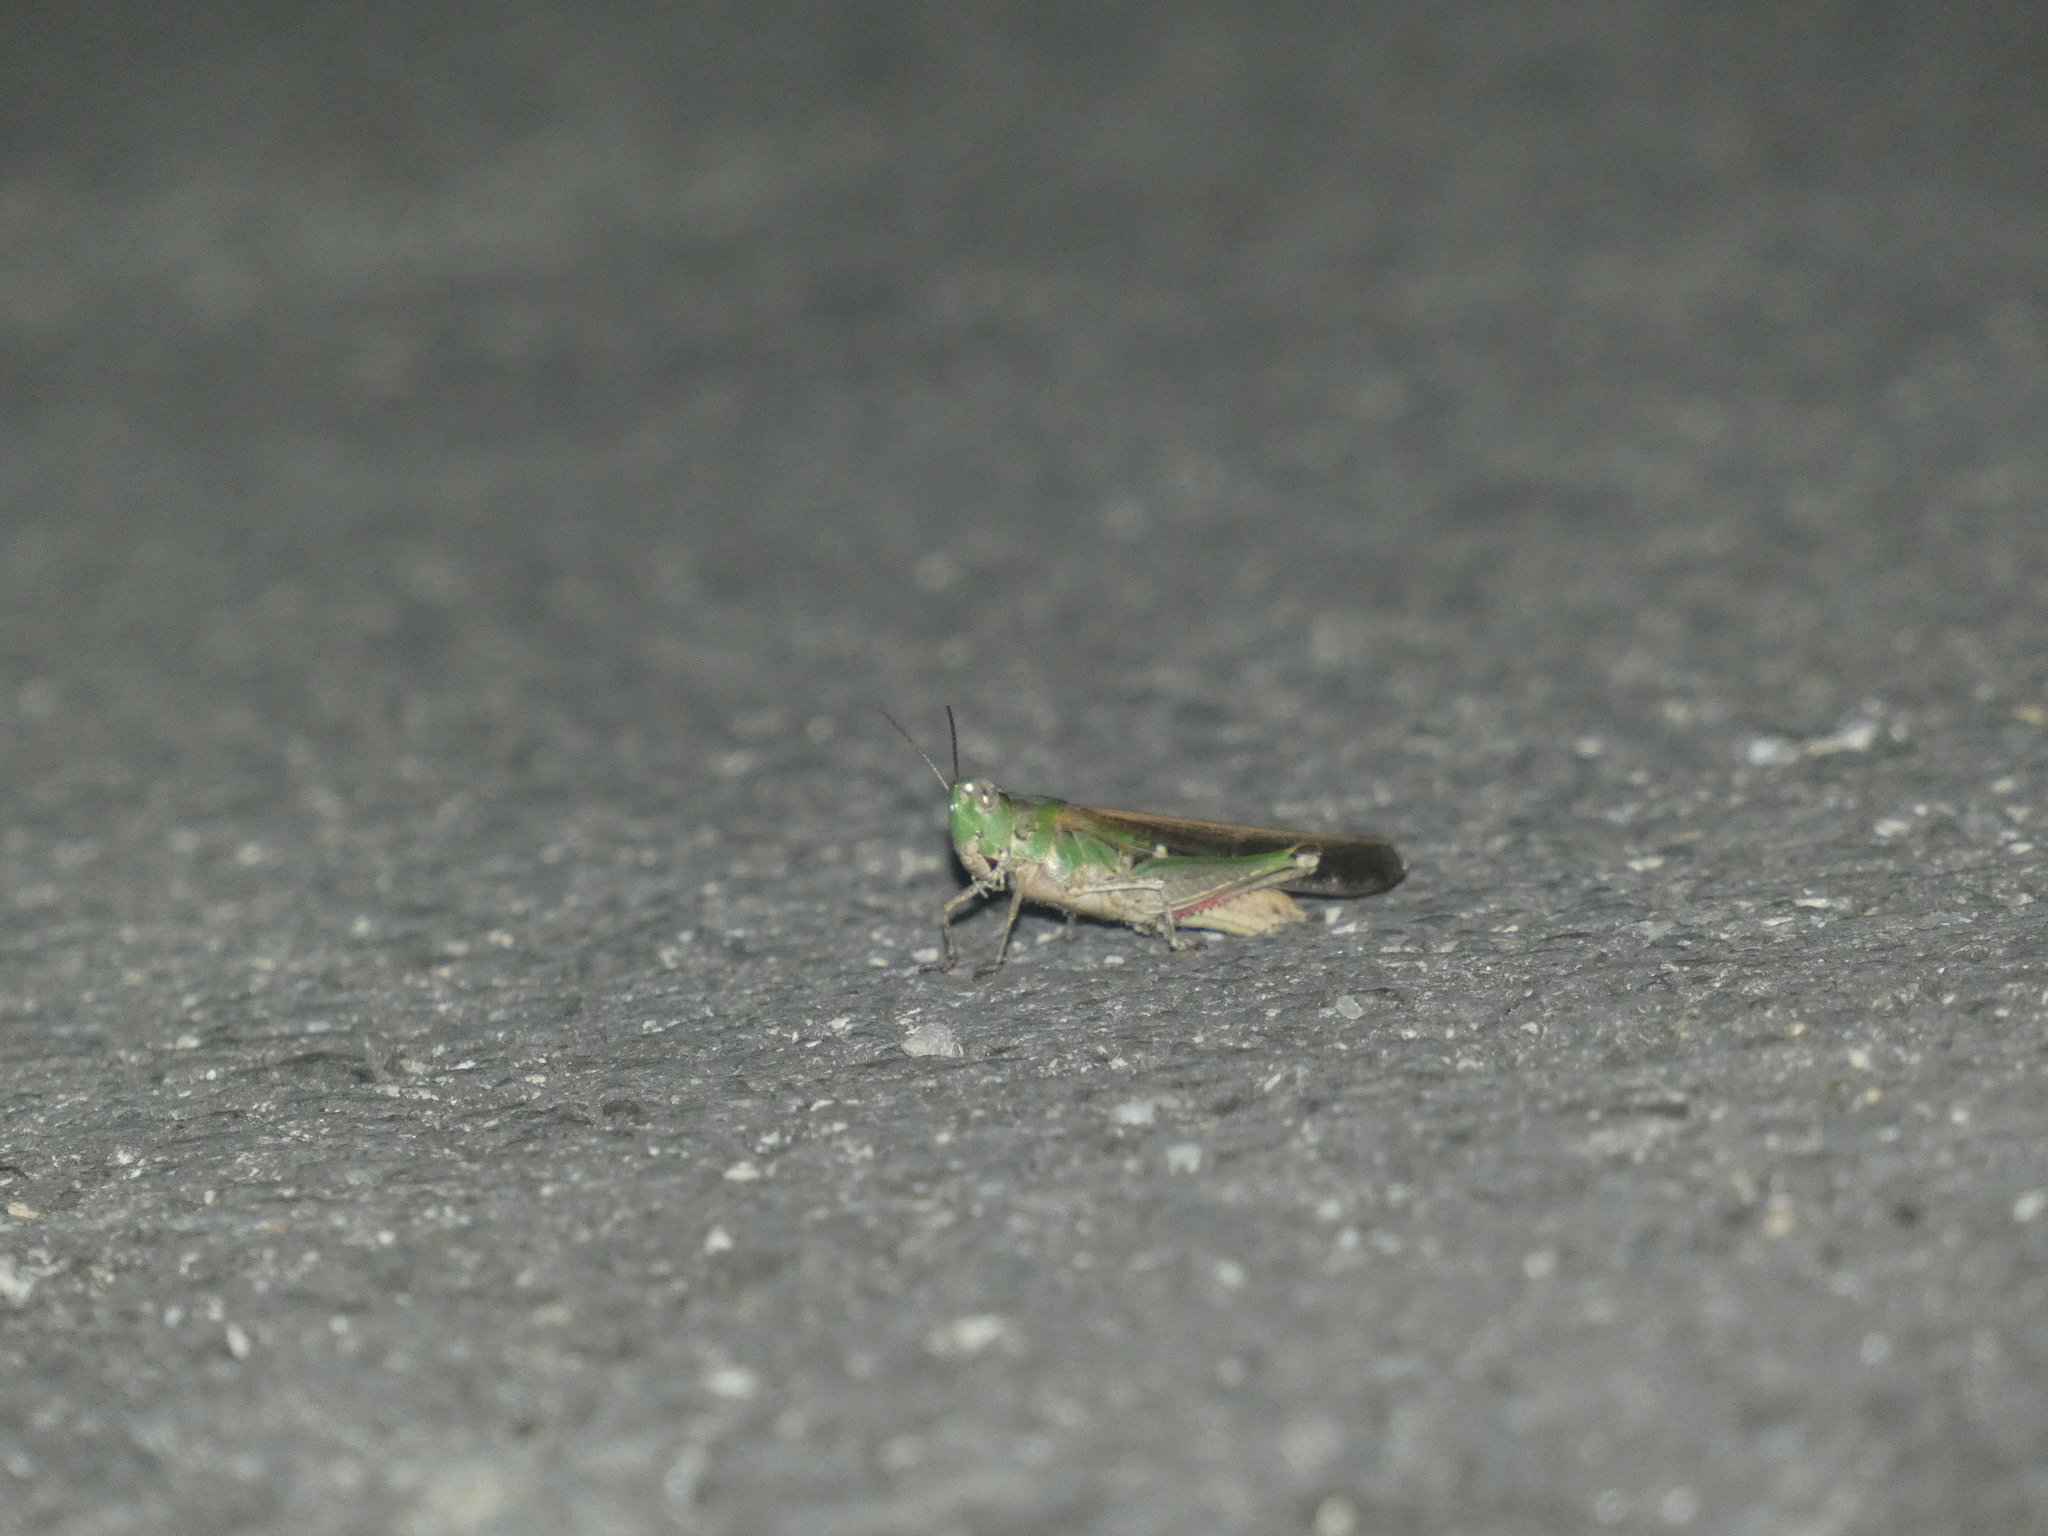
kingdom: Animalia
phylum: Arthropoda
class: Insecta
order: Orthoptera
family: Acrididae
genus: Aiolopus
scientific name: Aiolopus puissanti
